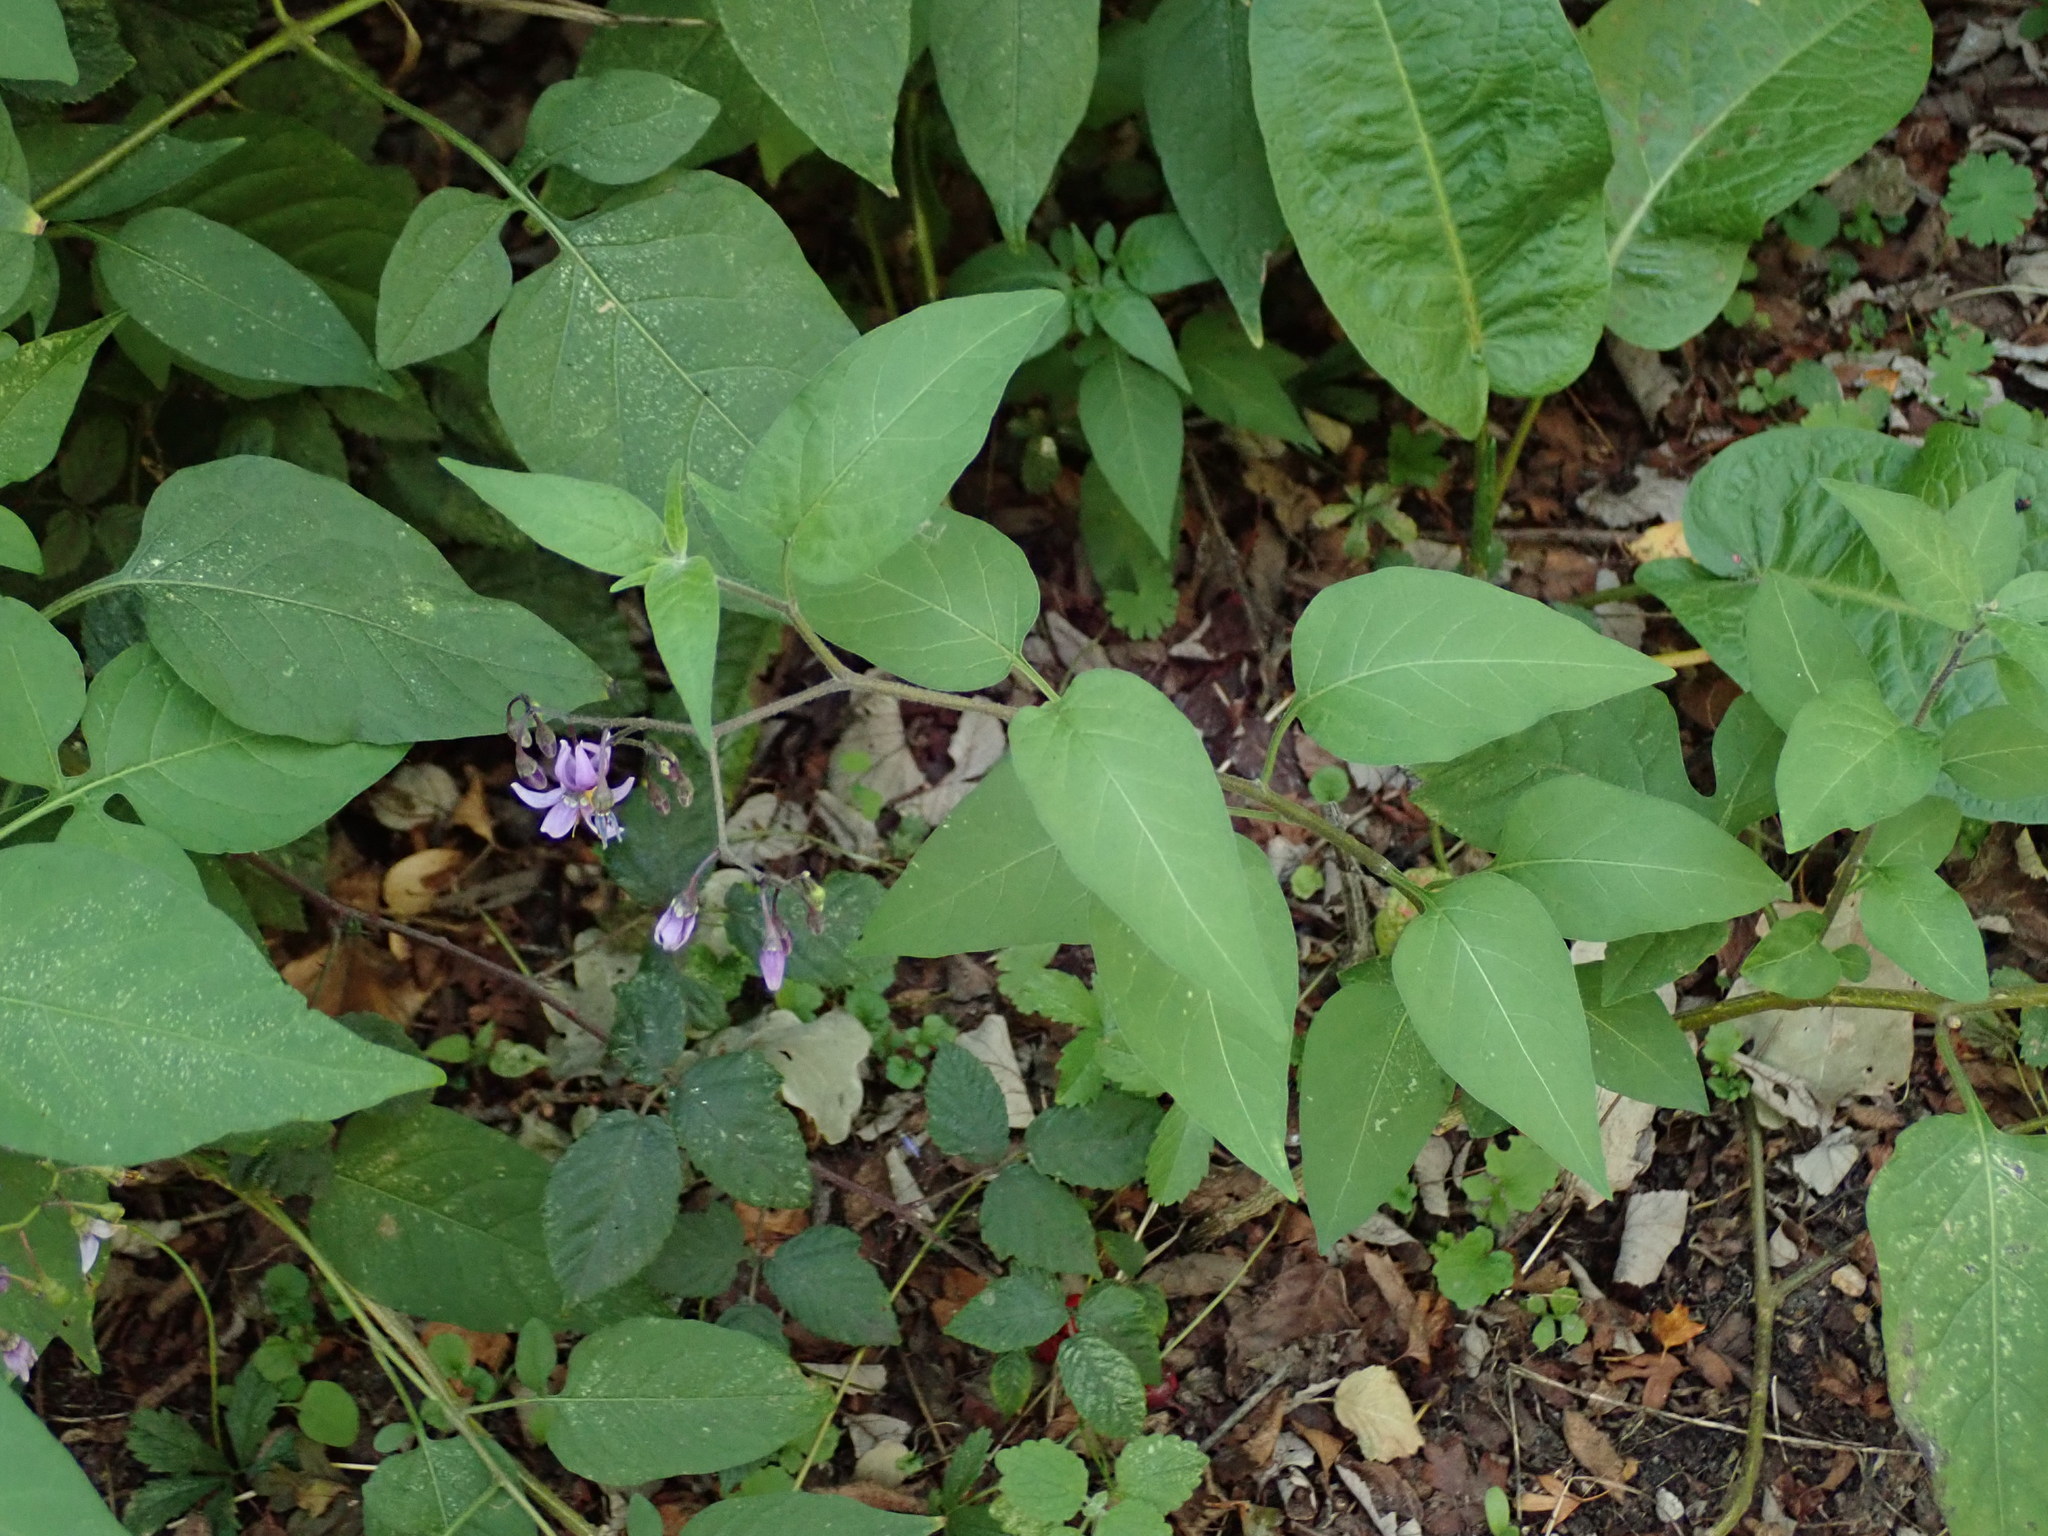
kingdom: Plantae
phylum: Tracheophyta
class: Magnoliopsida
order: Solanales
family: Solanaceae
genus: Solanum
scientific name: Solanum dulcamara
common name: Climbing nightshade
